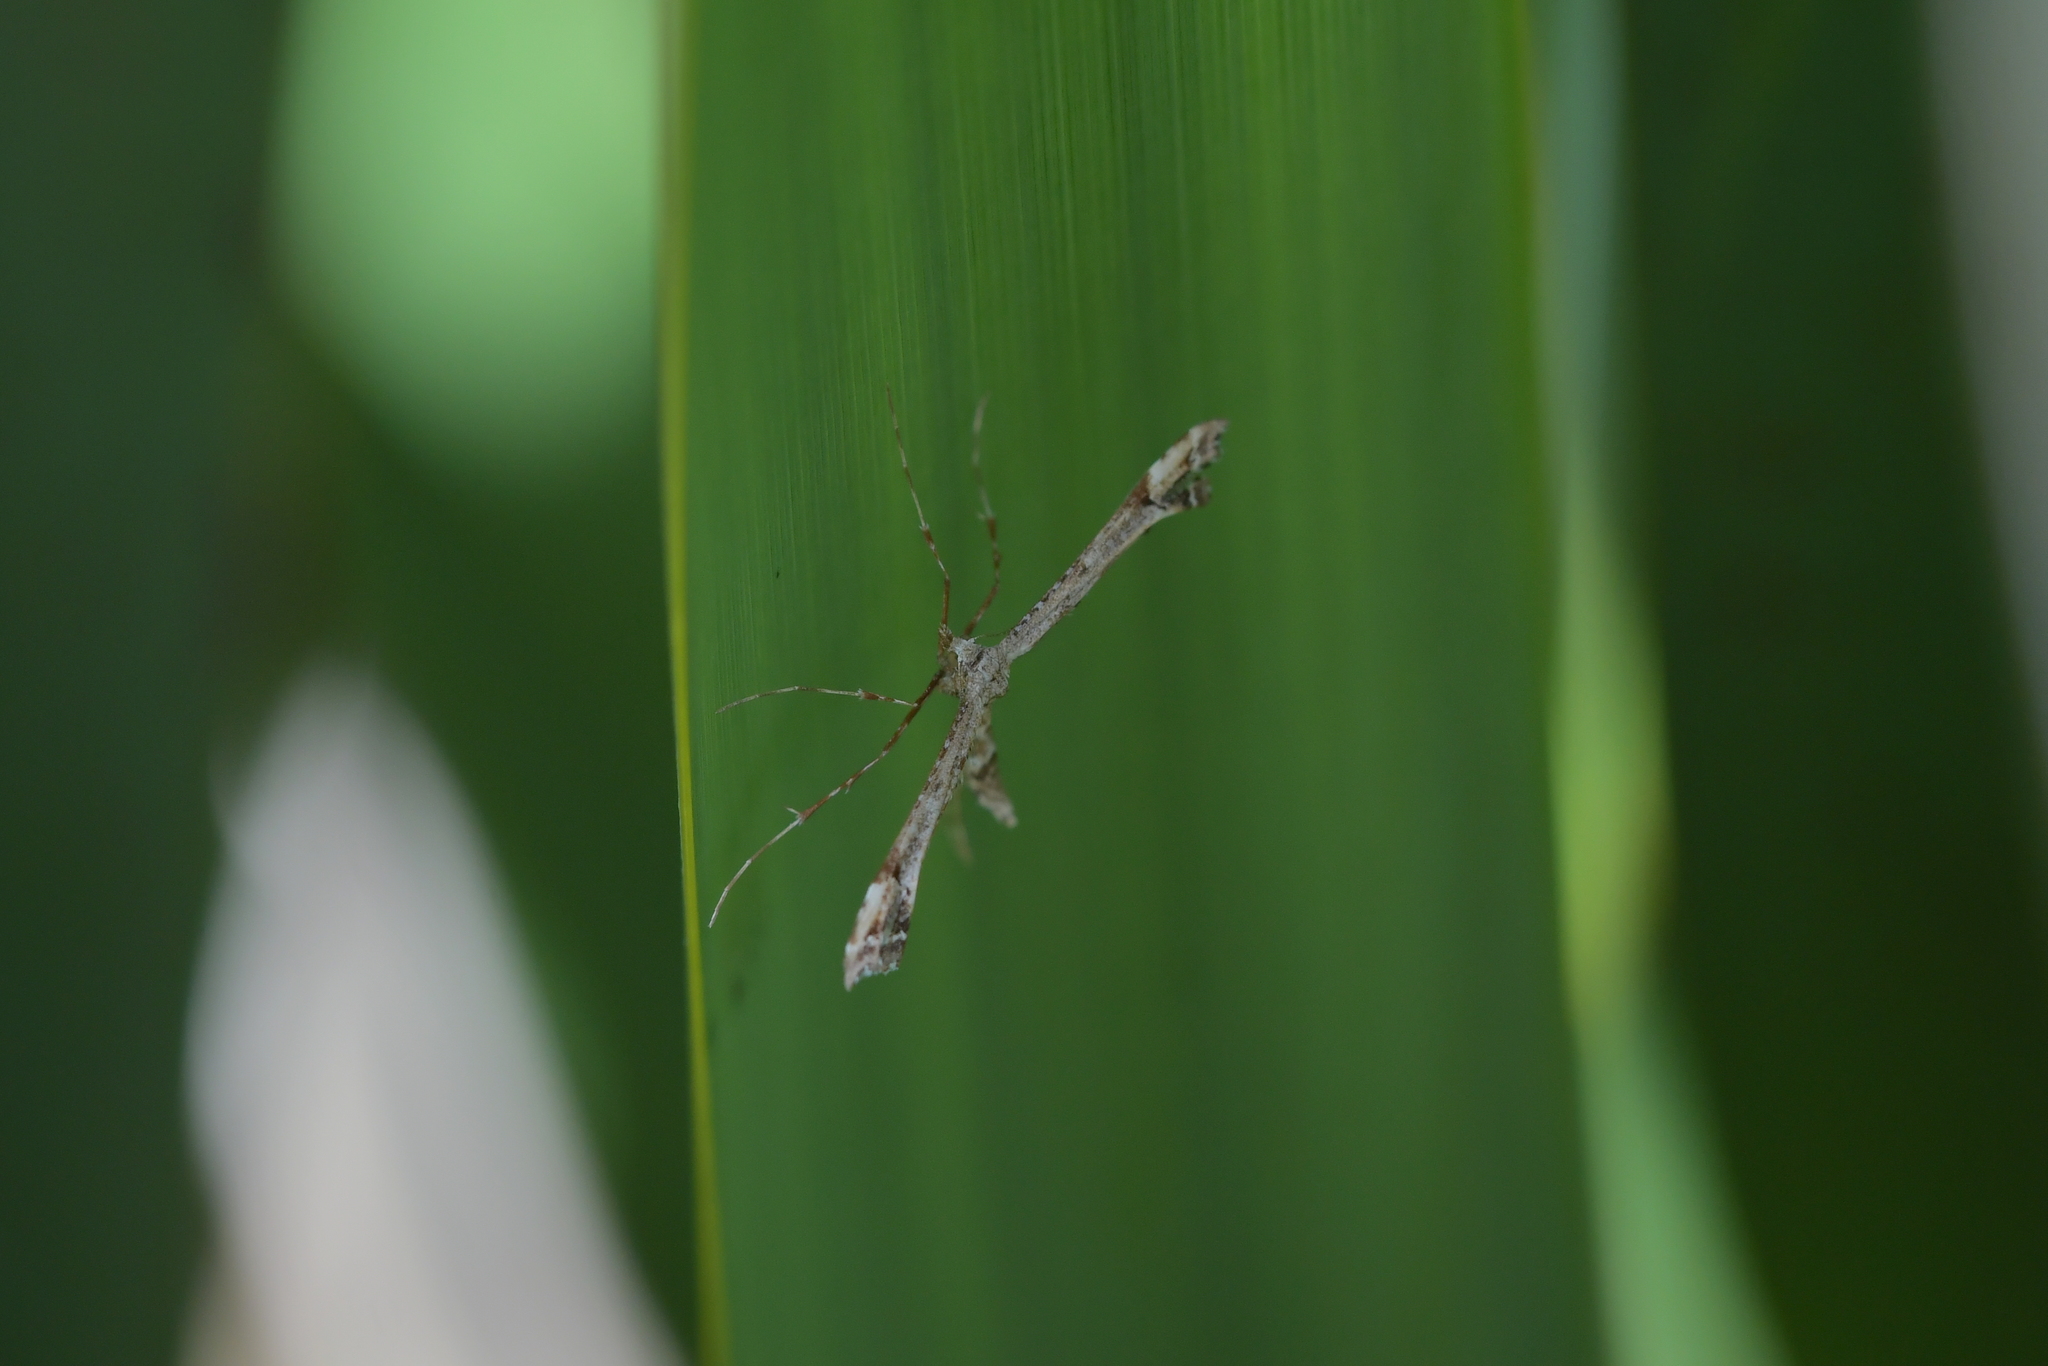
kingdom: Animalia
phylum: Arthropoda
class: Insecta
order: Lepidoptera
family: Pterophoridae
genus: Amblyptilia
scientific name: Amblyptilia repletalis
